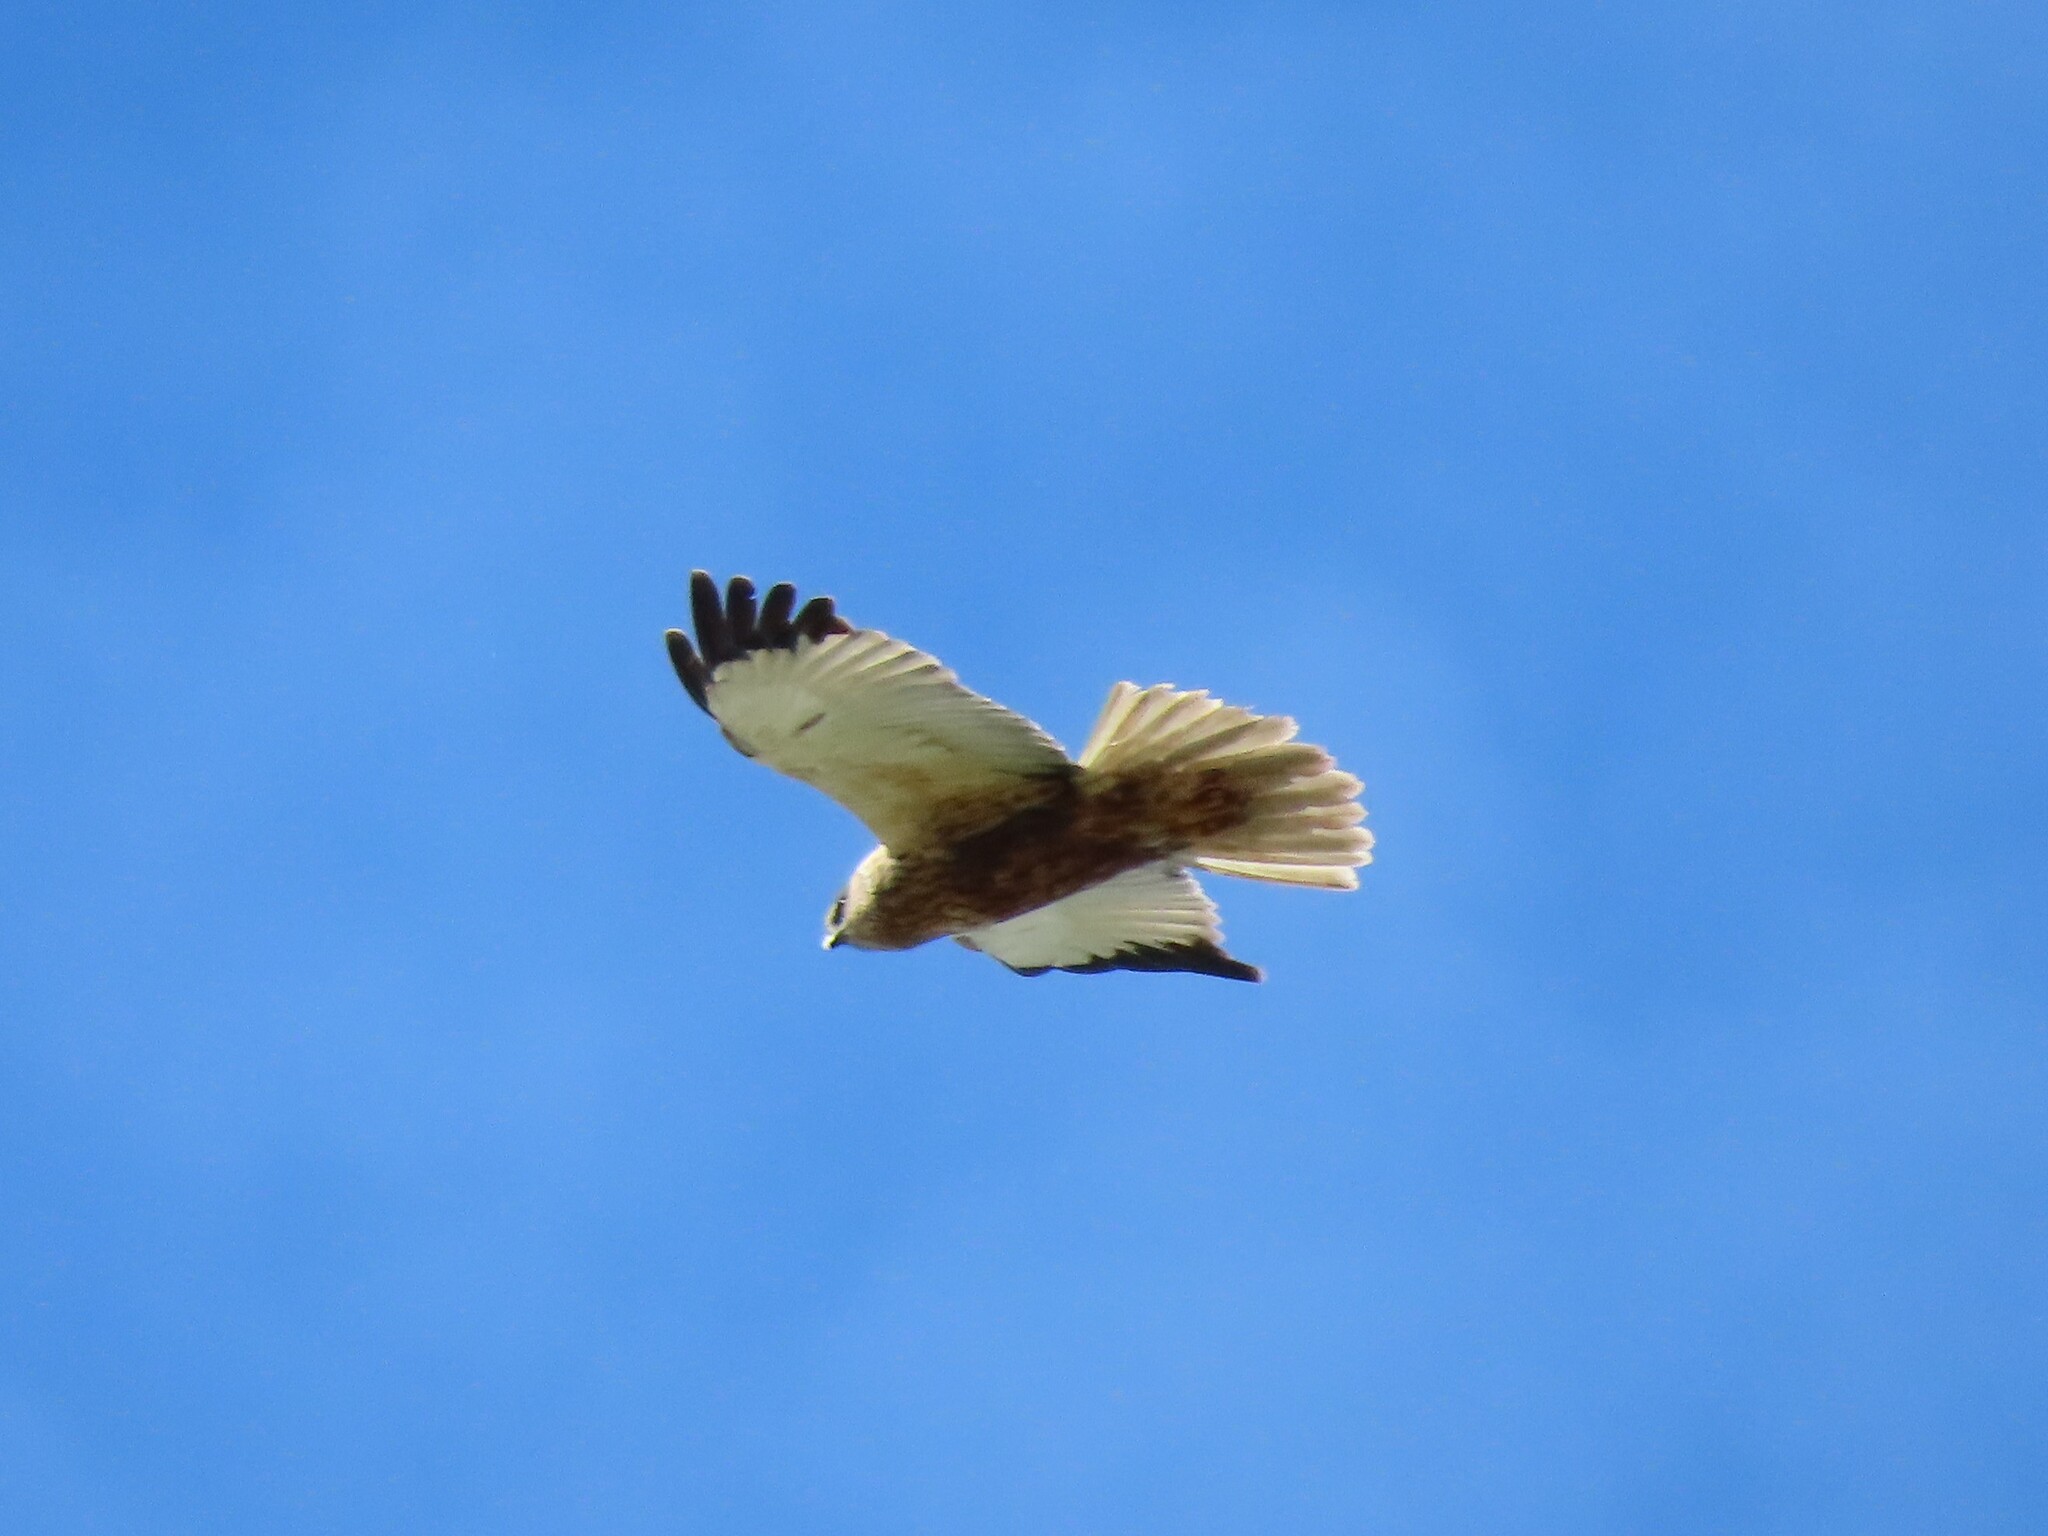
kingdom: Animalia
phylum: Chordata
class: Aves
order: Accipitriformes
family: Accipitridae
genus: Circus
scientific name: Circus aeruginosus
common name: Western marsh harrier
